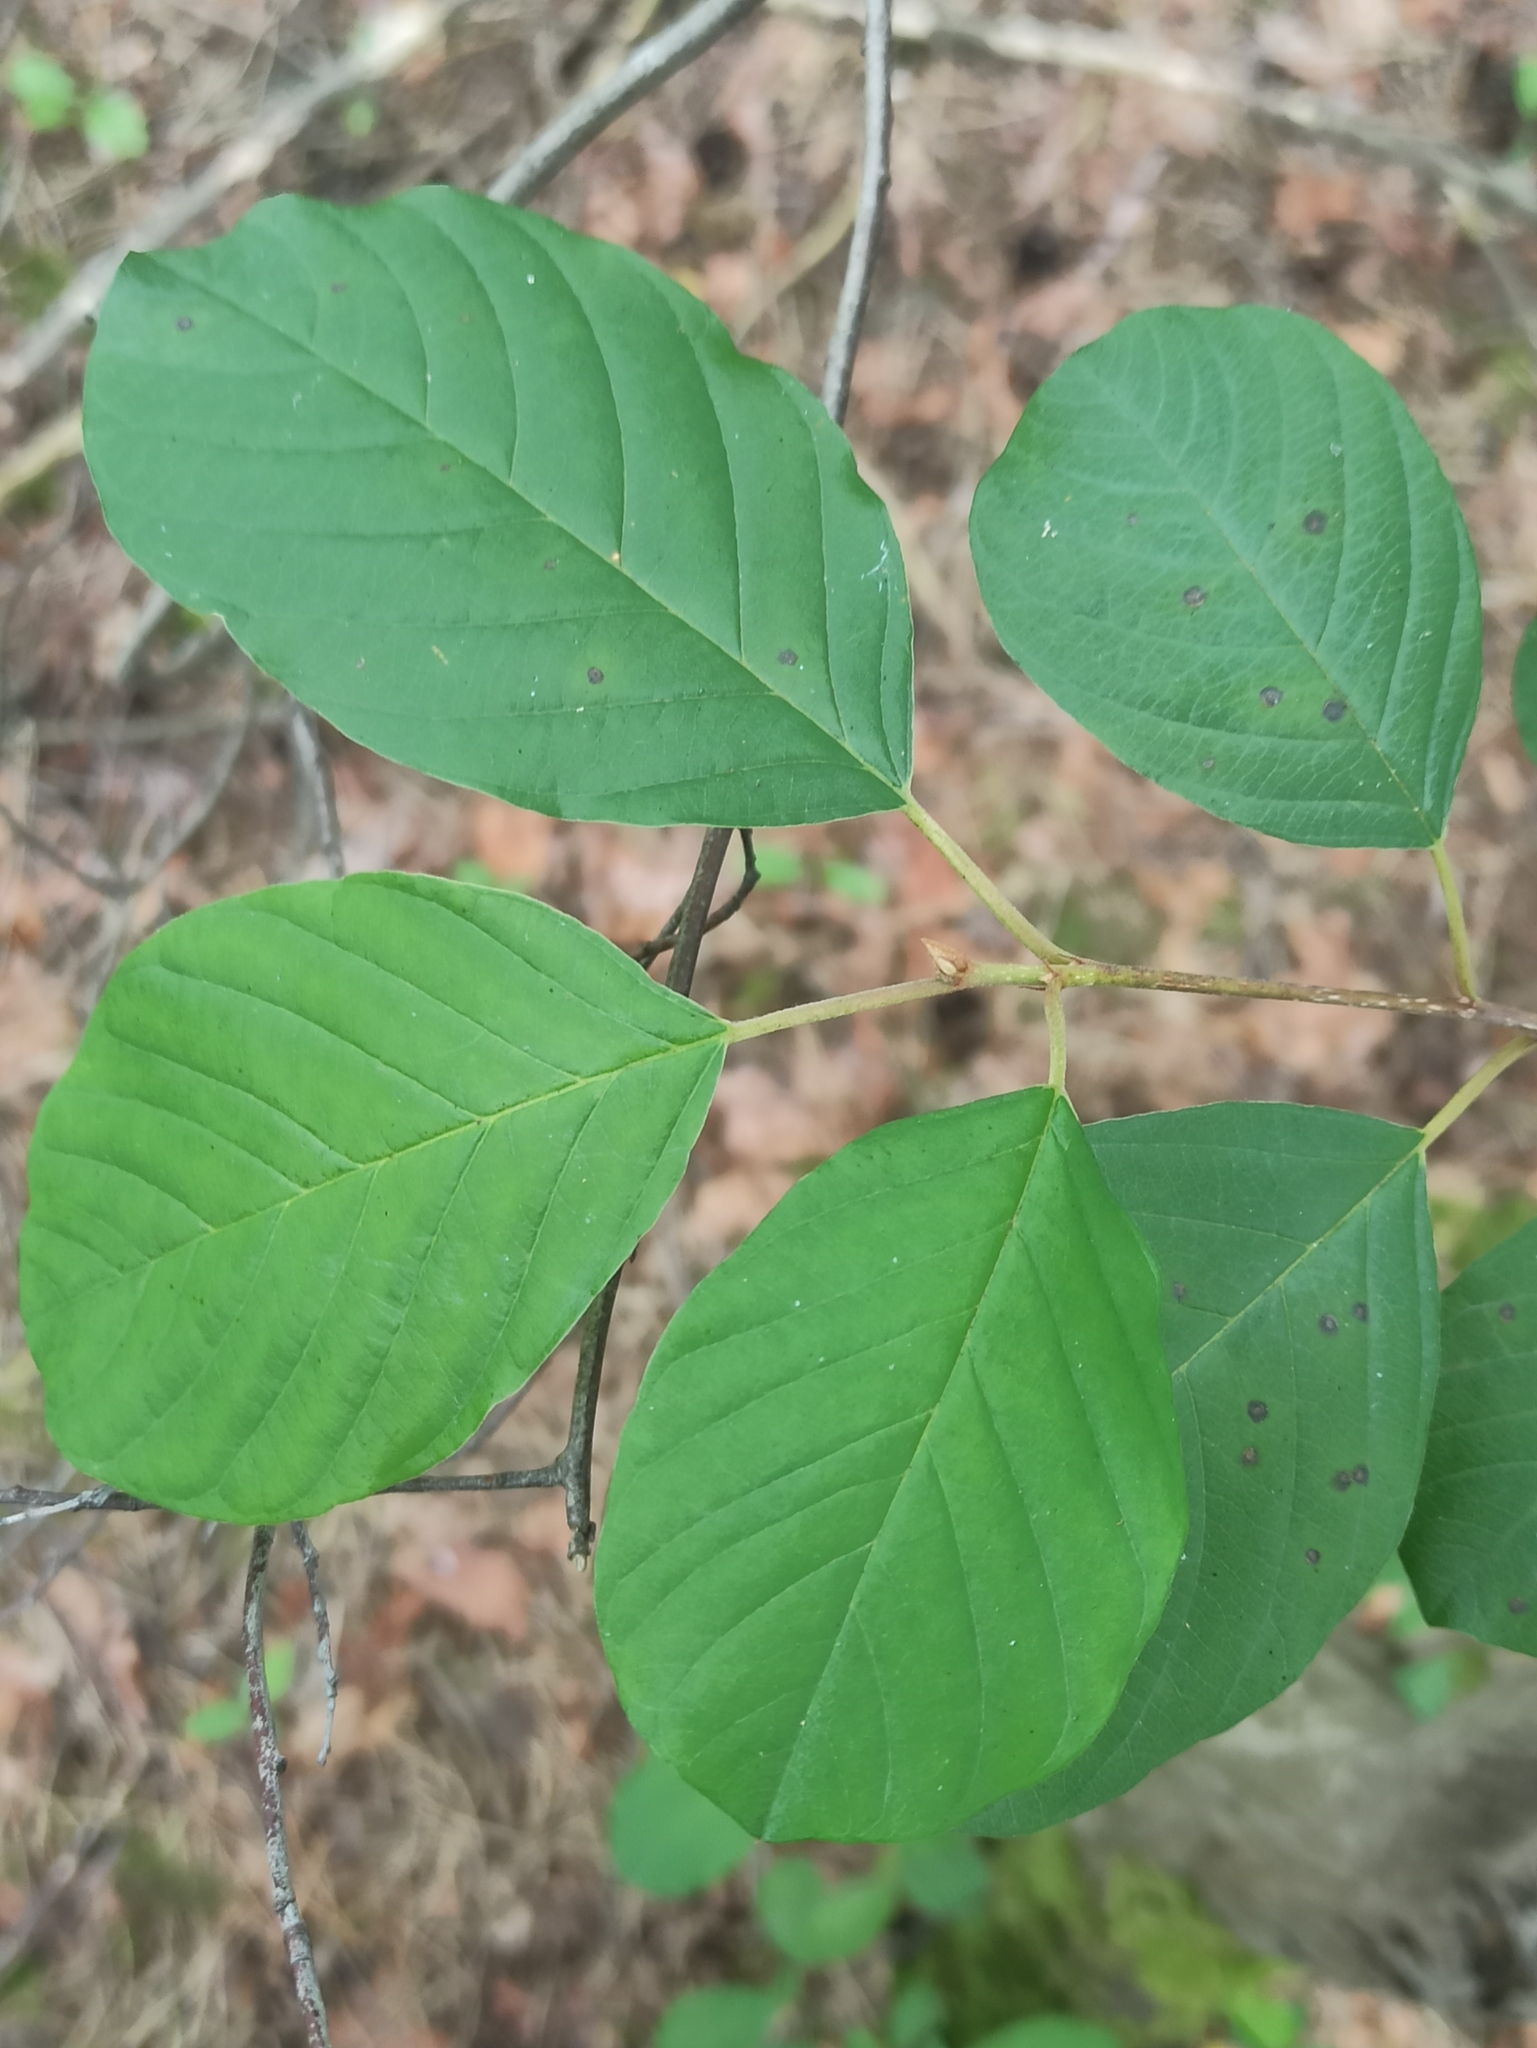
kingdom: Plantae
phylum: Tracheophyta
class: Magnoliopsida
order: Rosales
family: Rhamnaceae
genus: Frangula
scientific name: Frangula alnus
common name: Alder buckthorn
